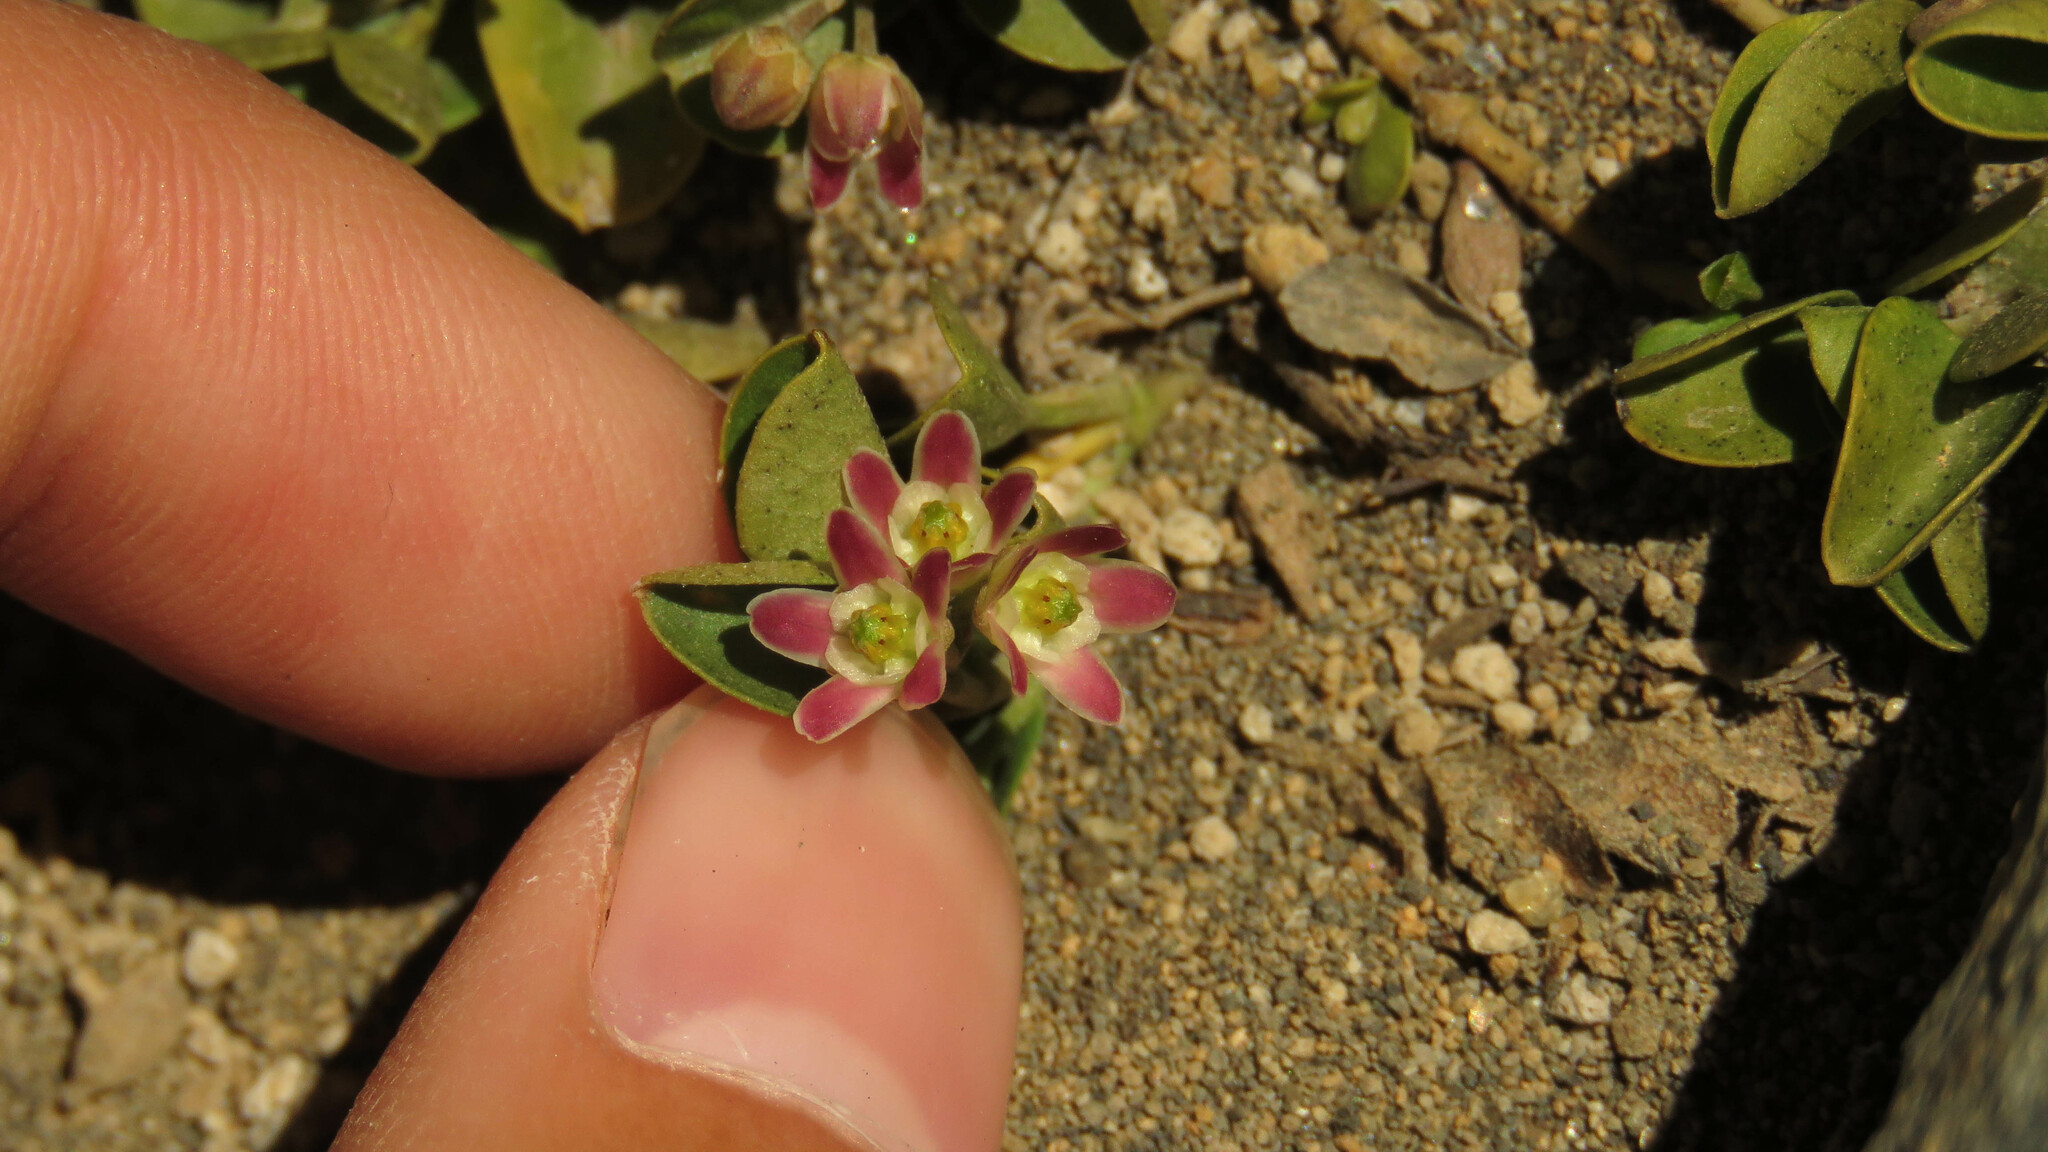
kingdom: Plantae
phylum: Tracheophyta
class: Magnoliopsida
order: Gentianales
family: Apocynaceae
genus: Diplolepis
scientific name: Diplolepis biflora
